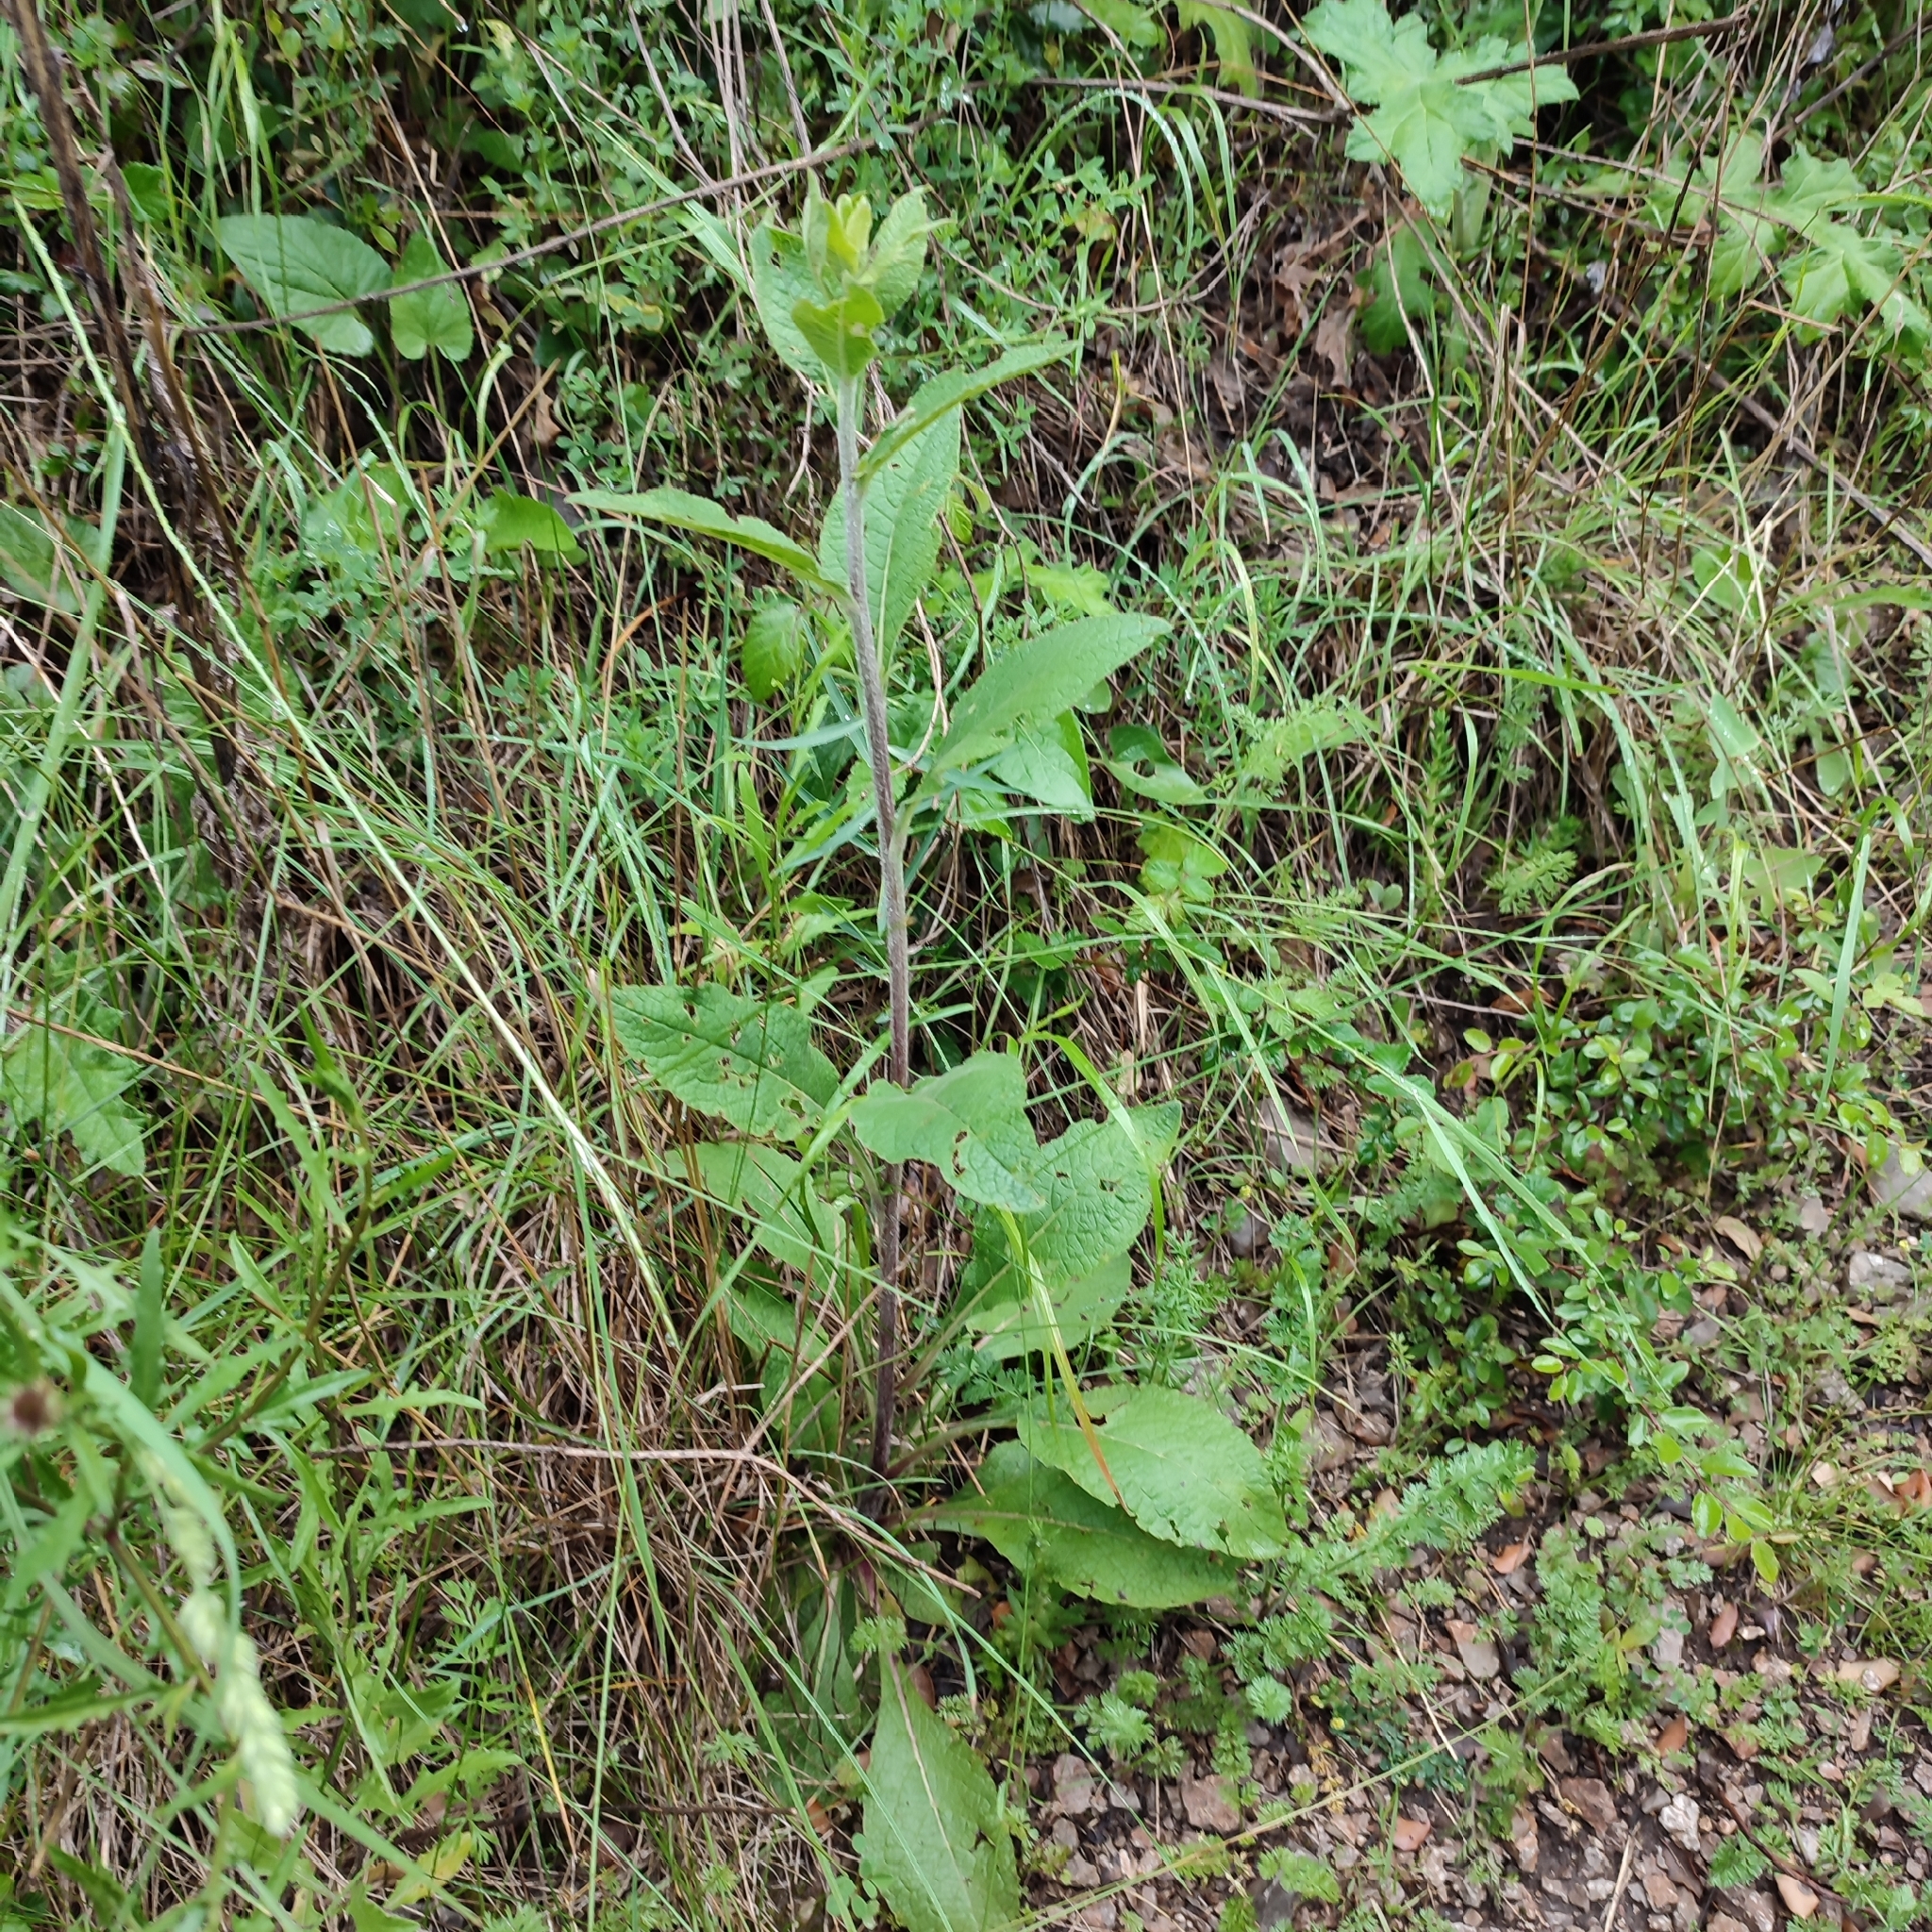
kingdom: Plantae
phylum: Tracheophyta
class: Magnoliopsida
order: Lamiales
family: Plantaginaceae
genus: Digitalis
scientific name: Digitalis purpurea
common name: Foxglove
